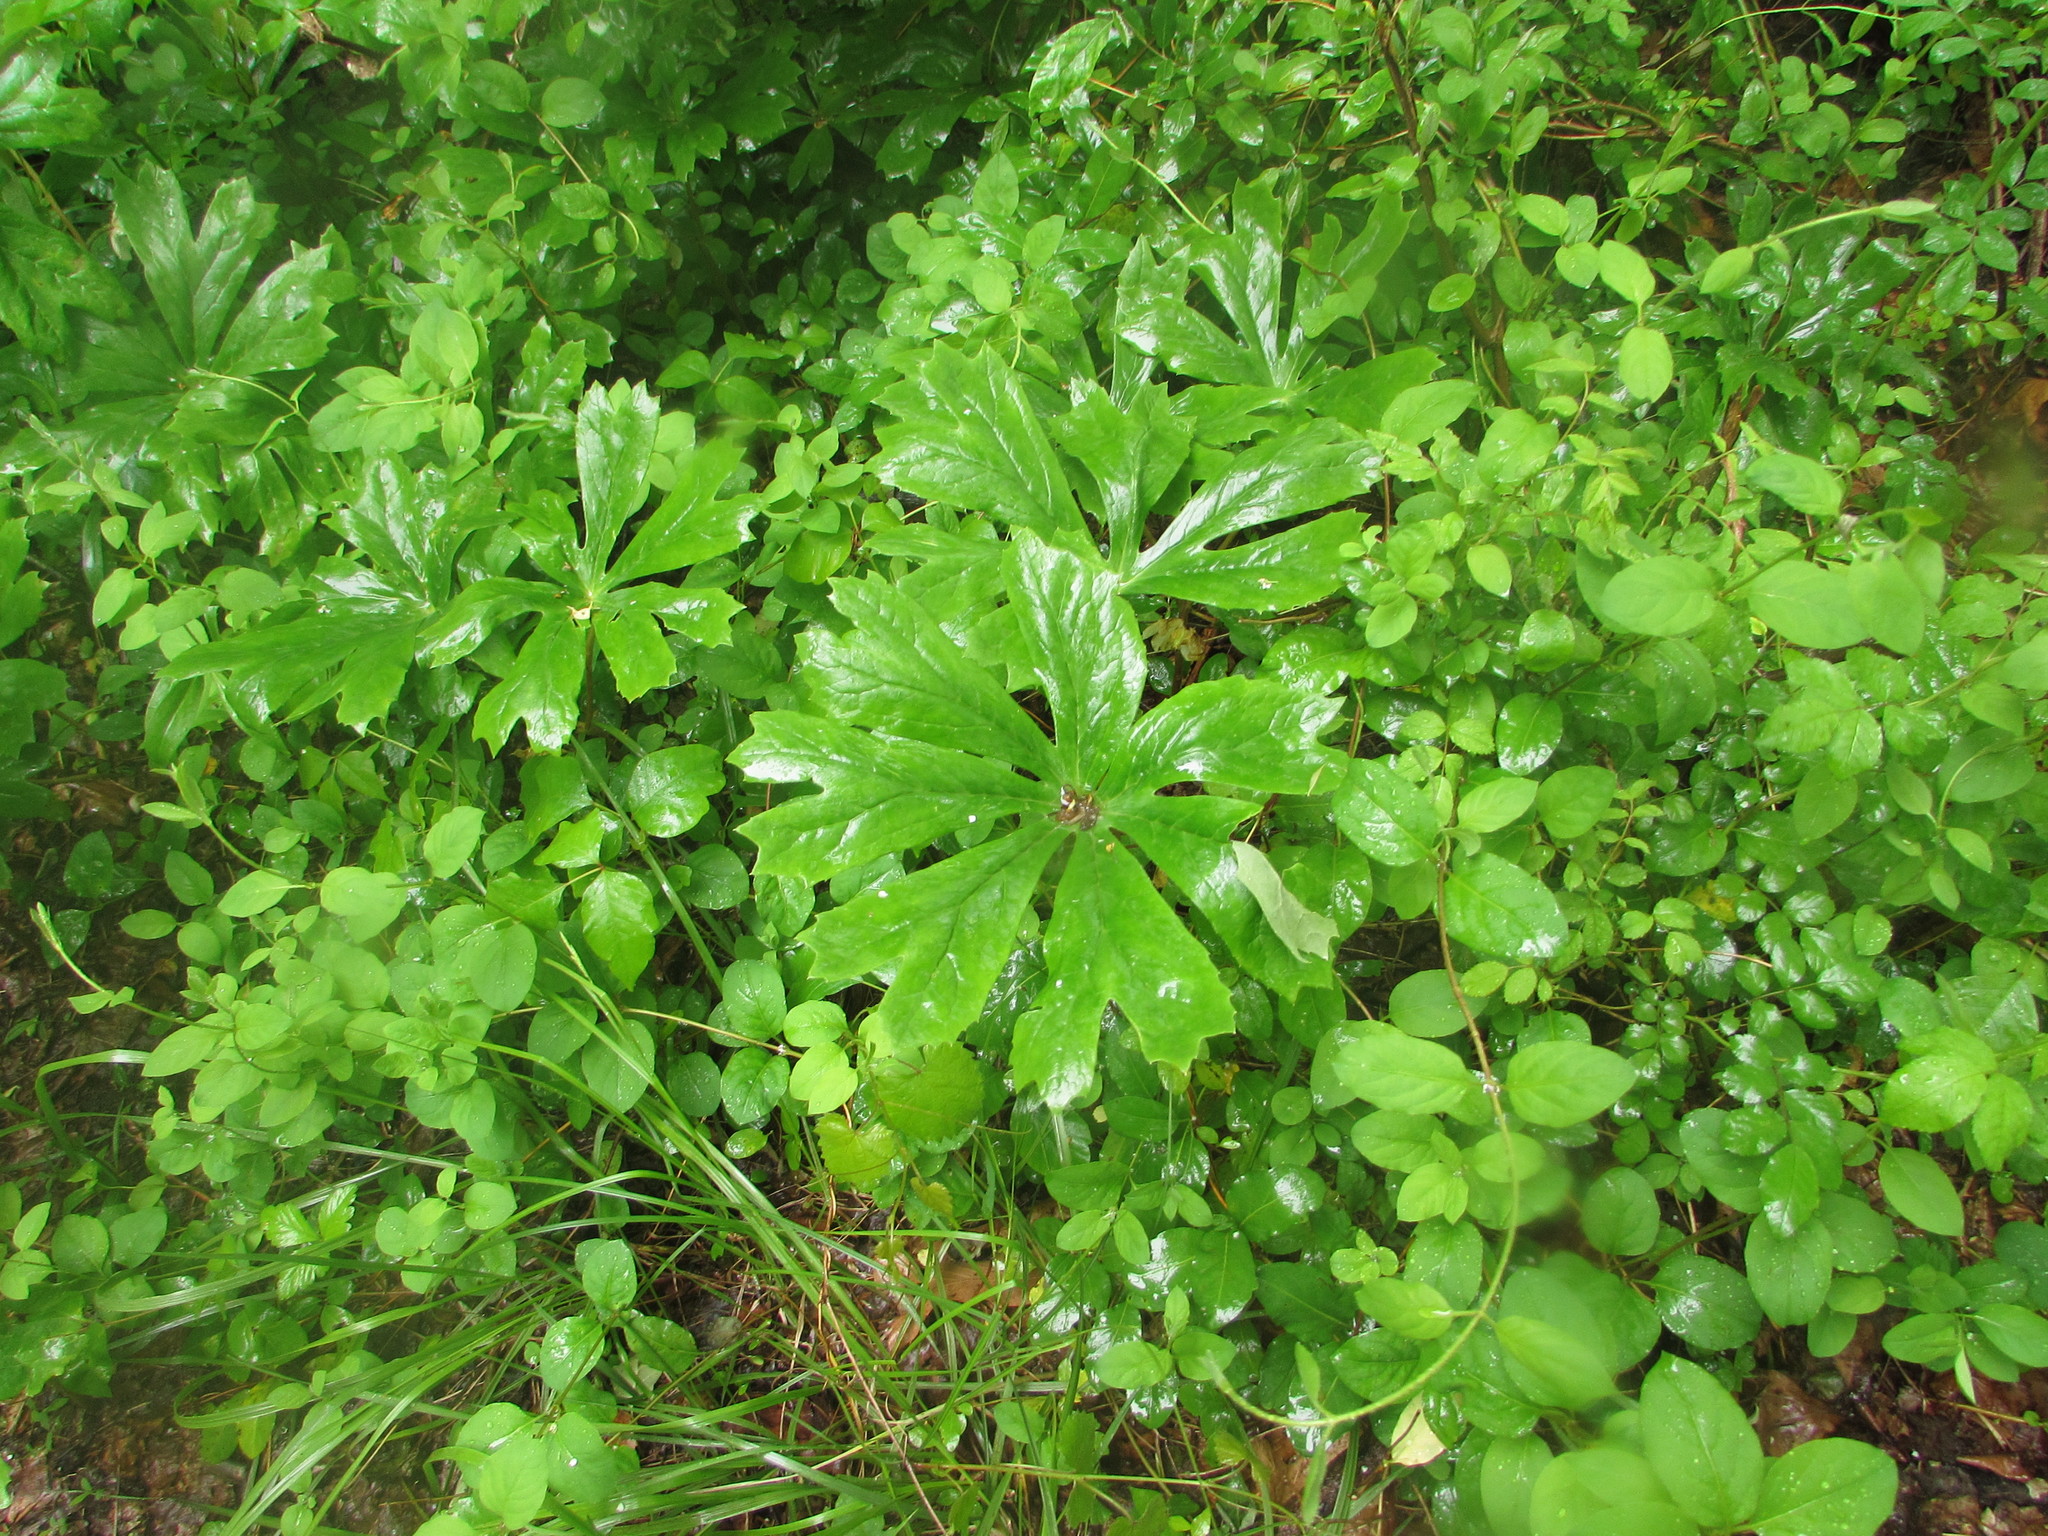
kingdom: Plantae
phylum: Tracheophyta
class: Magnoliopsida
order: Ranunculales
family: Berberidaceae
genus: Podophyllum
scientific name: Podophyllum peltatum
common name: Wild mandrake
